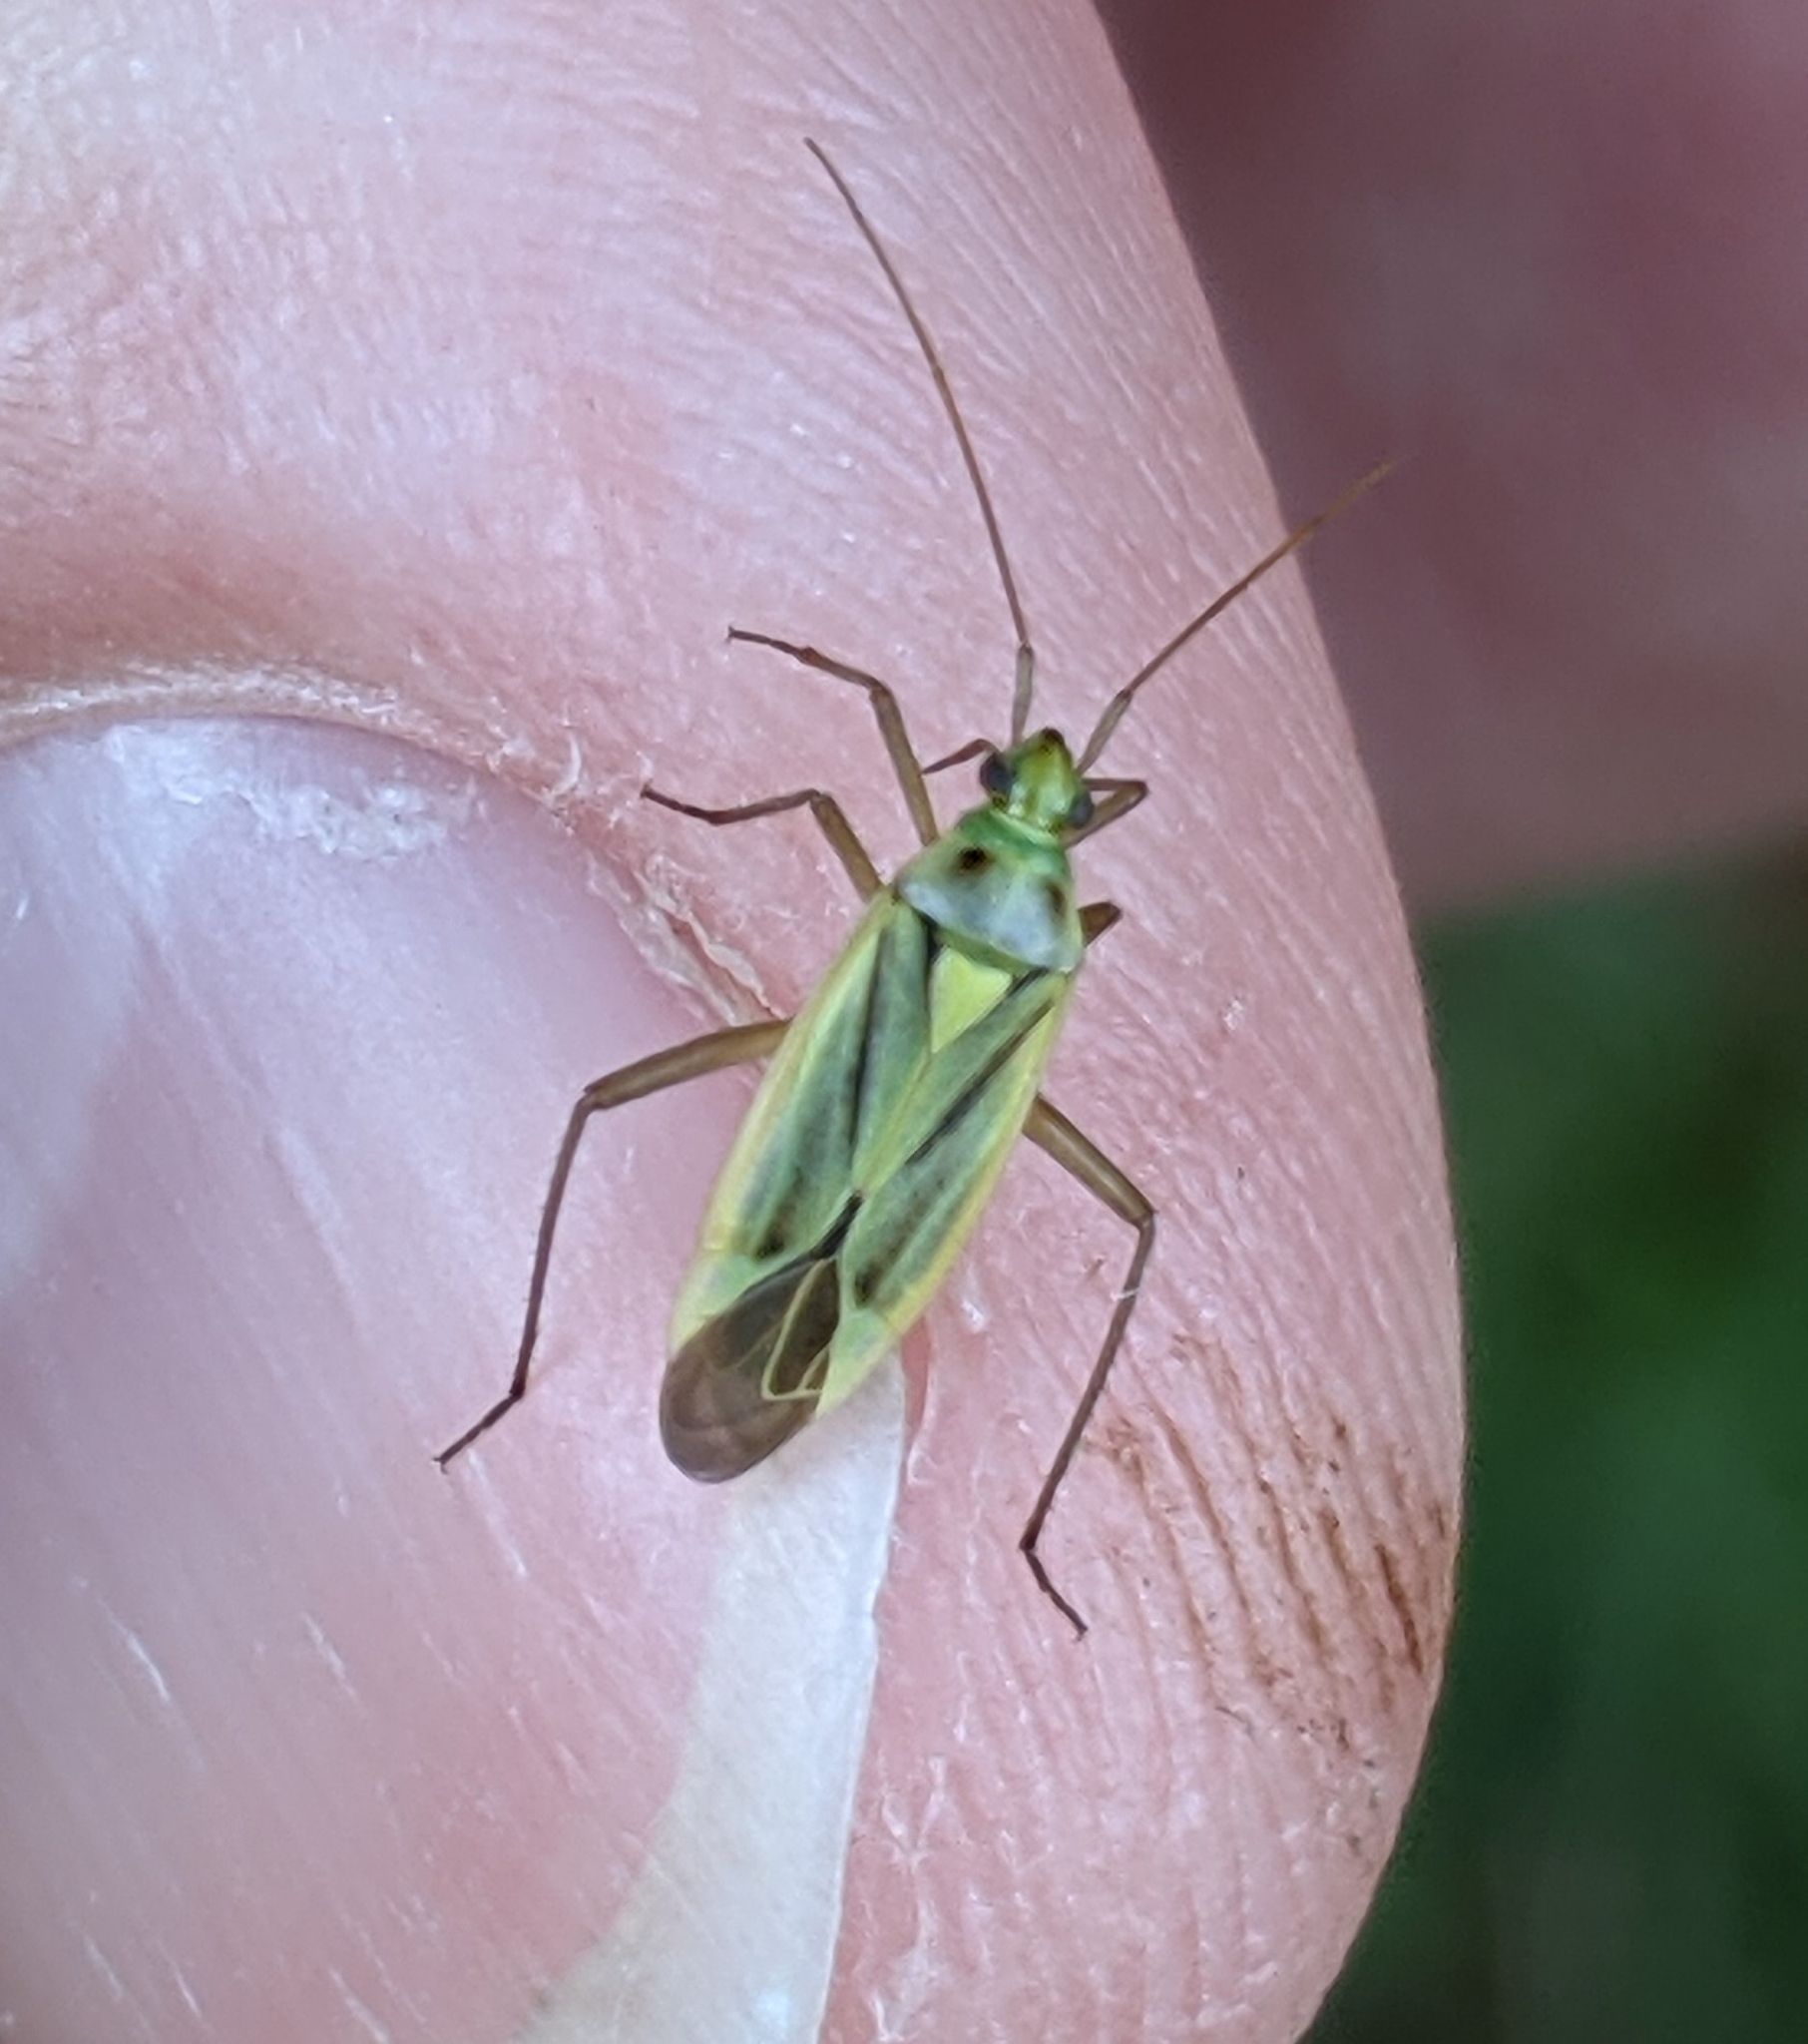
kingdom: Animalia
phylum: Arthropoda
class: Insecta
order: Hemiptera
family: Miridae
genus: Stenotus
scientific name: Stenotus binotatus
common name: Plant bug
